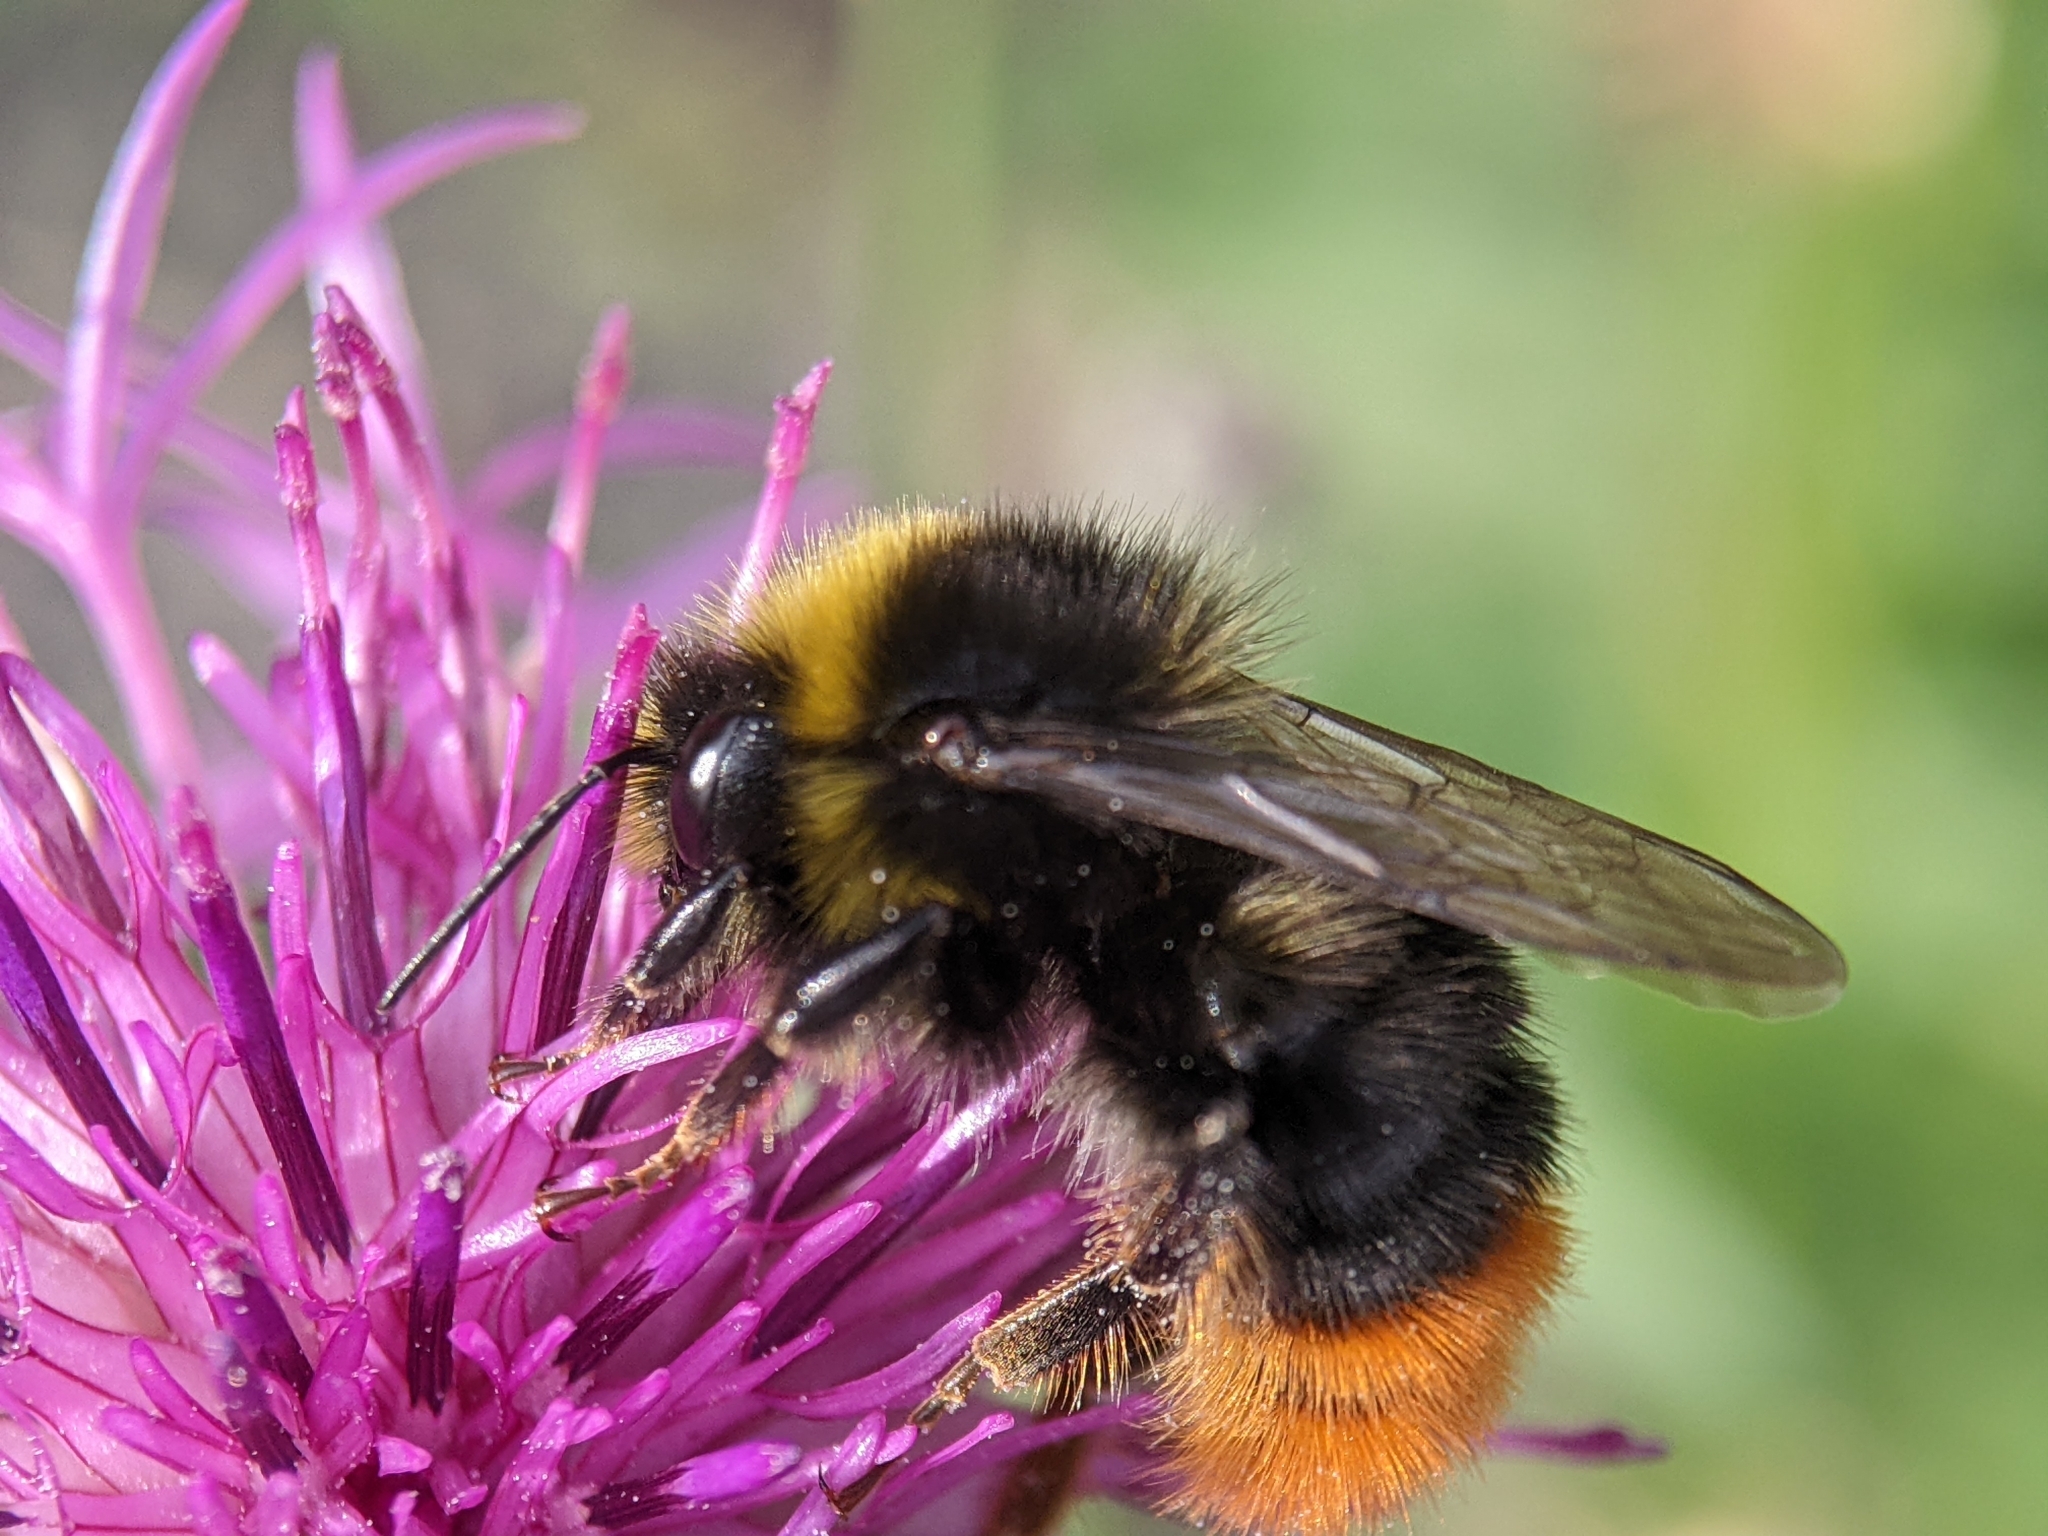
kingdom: Animalia
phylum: Arthropoda
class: Insecta
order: Hymenoptera
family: Apidae
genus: Bombus
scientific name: Bombus lapidarius
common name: Large red-tailed humble-bee
